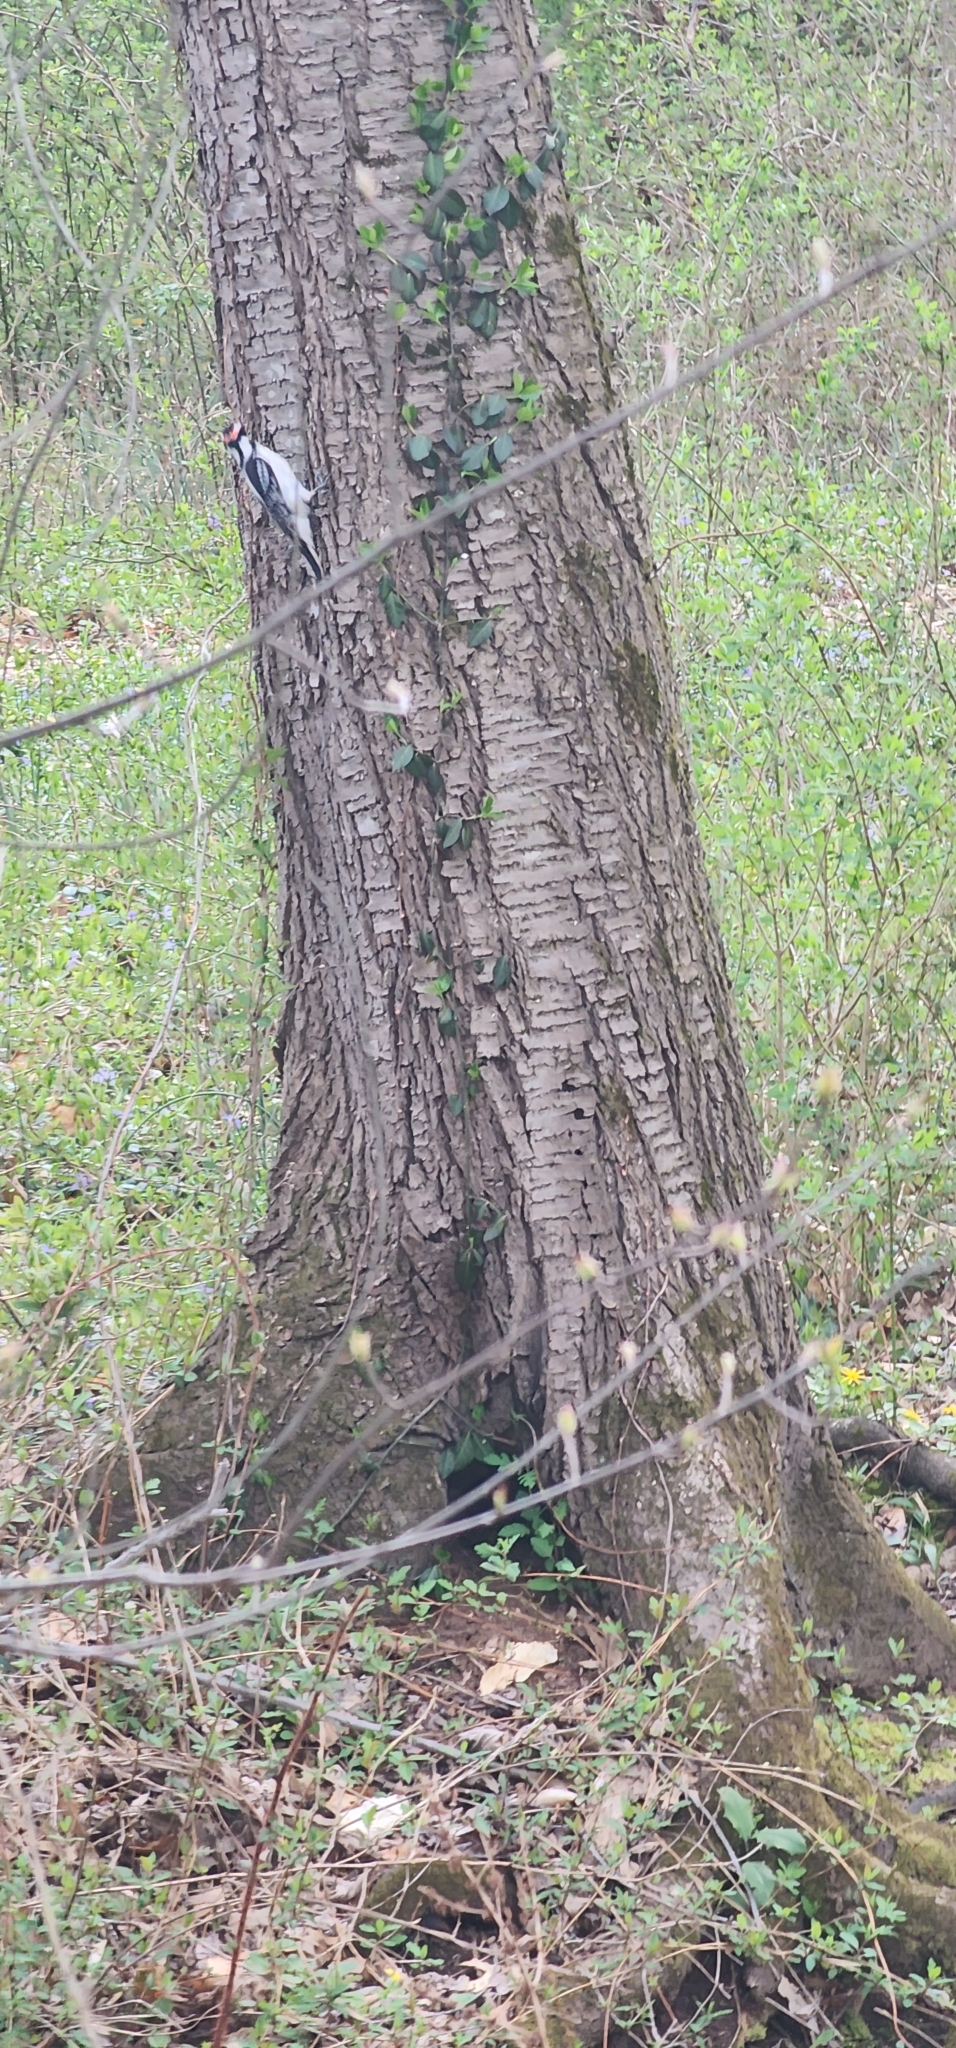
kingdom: Animalia
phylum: Chordata
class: Aves
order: Piciformes
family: Picidae
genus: Leuconotopicus
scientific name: Leuconotopicus villosus
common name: Hairy woodpecker
